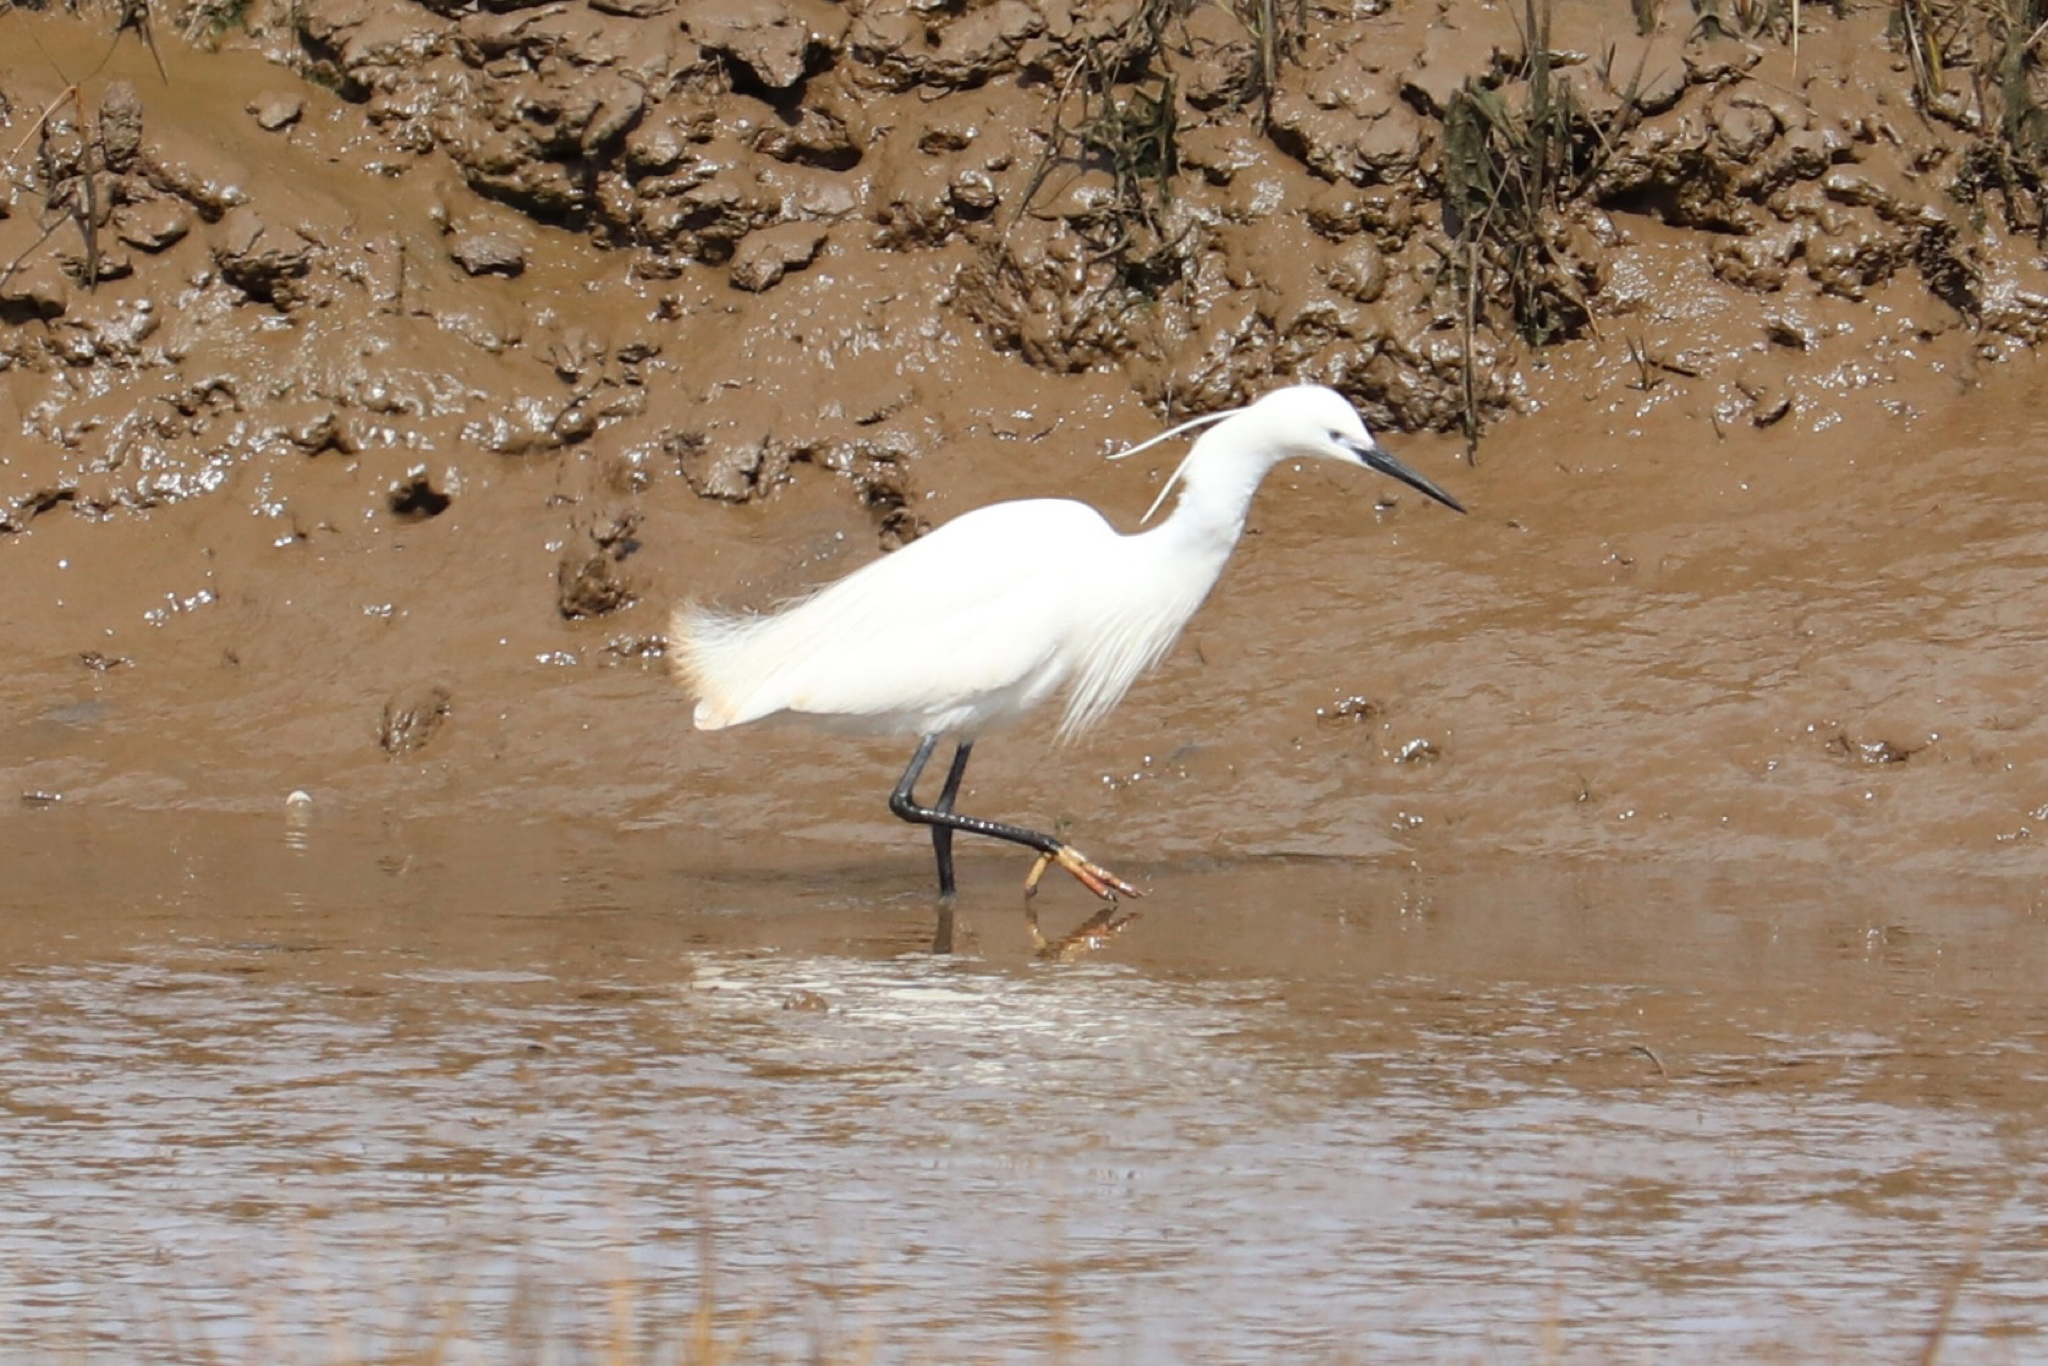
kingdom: Animalia
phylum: Chordata
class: Aves
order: Pelecaniformes
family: Ardeidae
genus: Egretta
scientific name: Egretta garzetta
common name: Little egret
